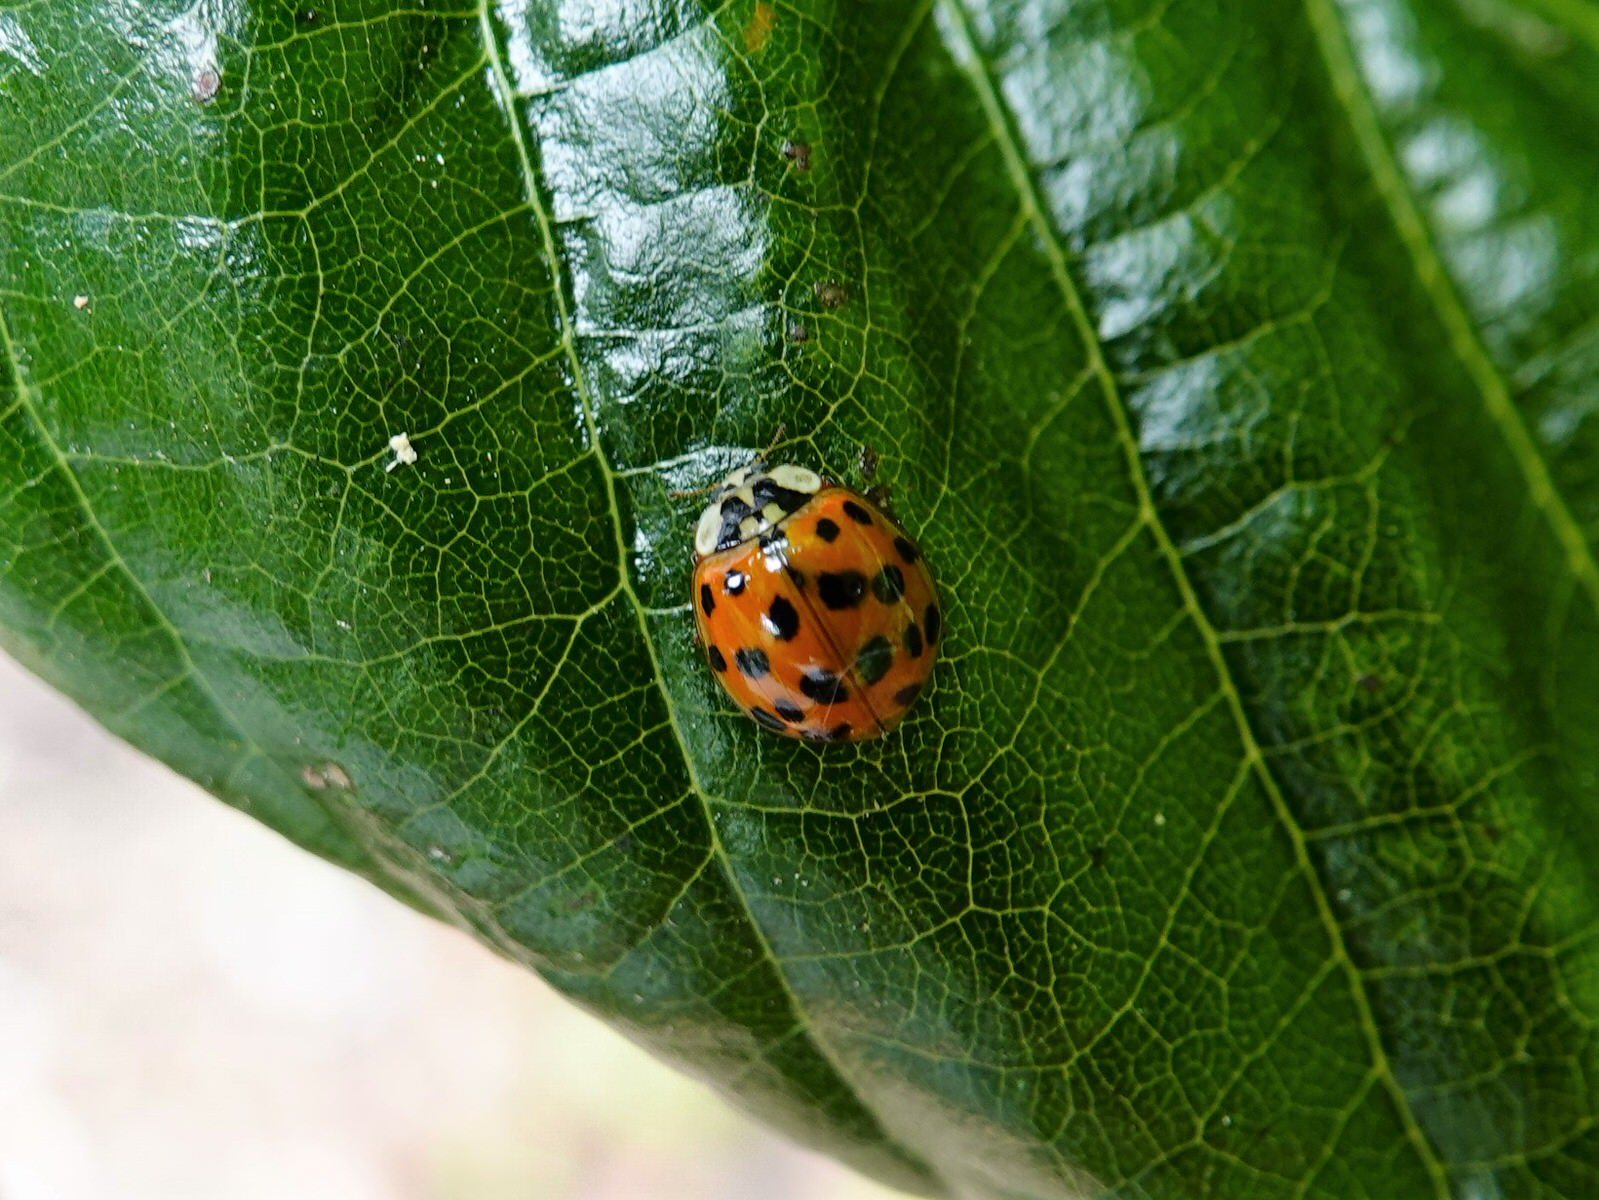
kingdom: Animalia
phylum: Arthropoda
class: Insecta
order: Coleoptera
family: Coccinellidae
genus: Harmonia
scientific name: Harmonia axyridis
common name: Harlequin ladybird
